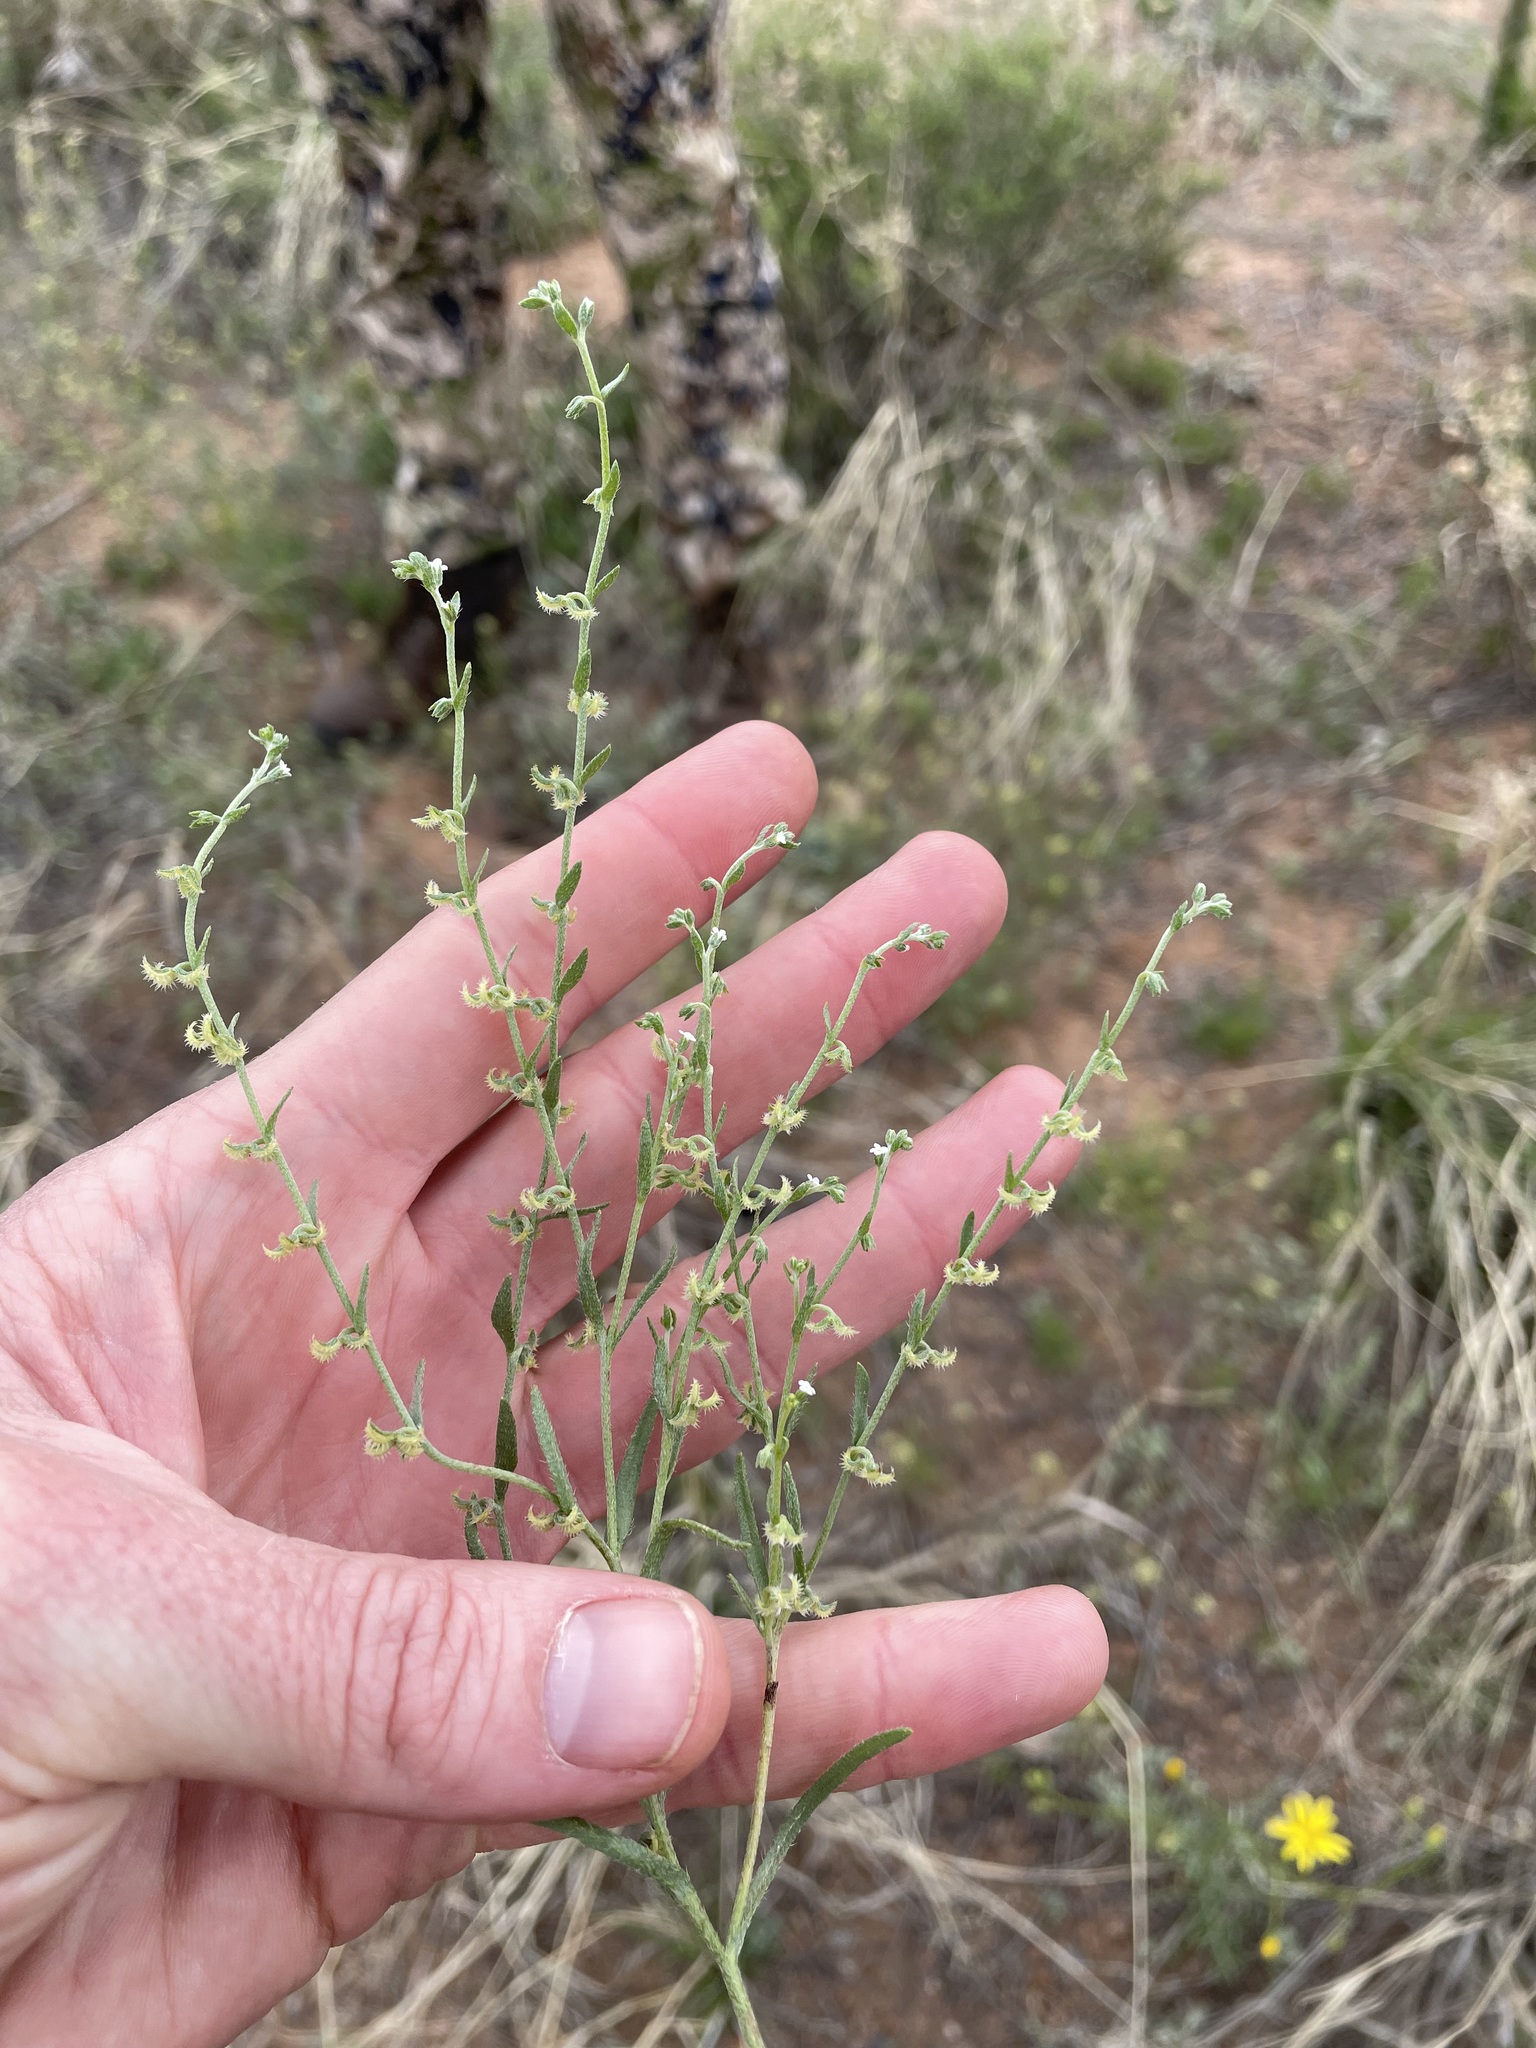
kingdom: Plantae
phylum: Tracheophyta
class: Magnoliopsida
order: Boraginales
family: Boraginaceae
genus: Pectocarya
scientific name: Pectocarya recurvata
